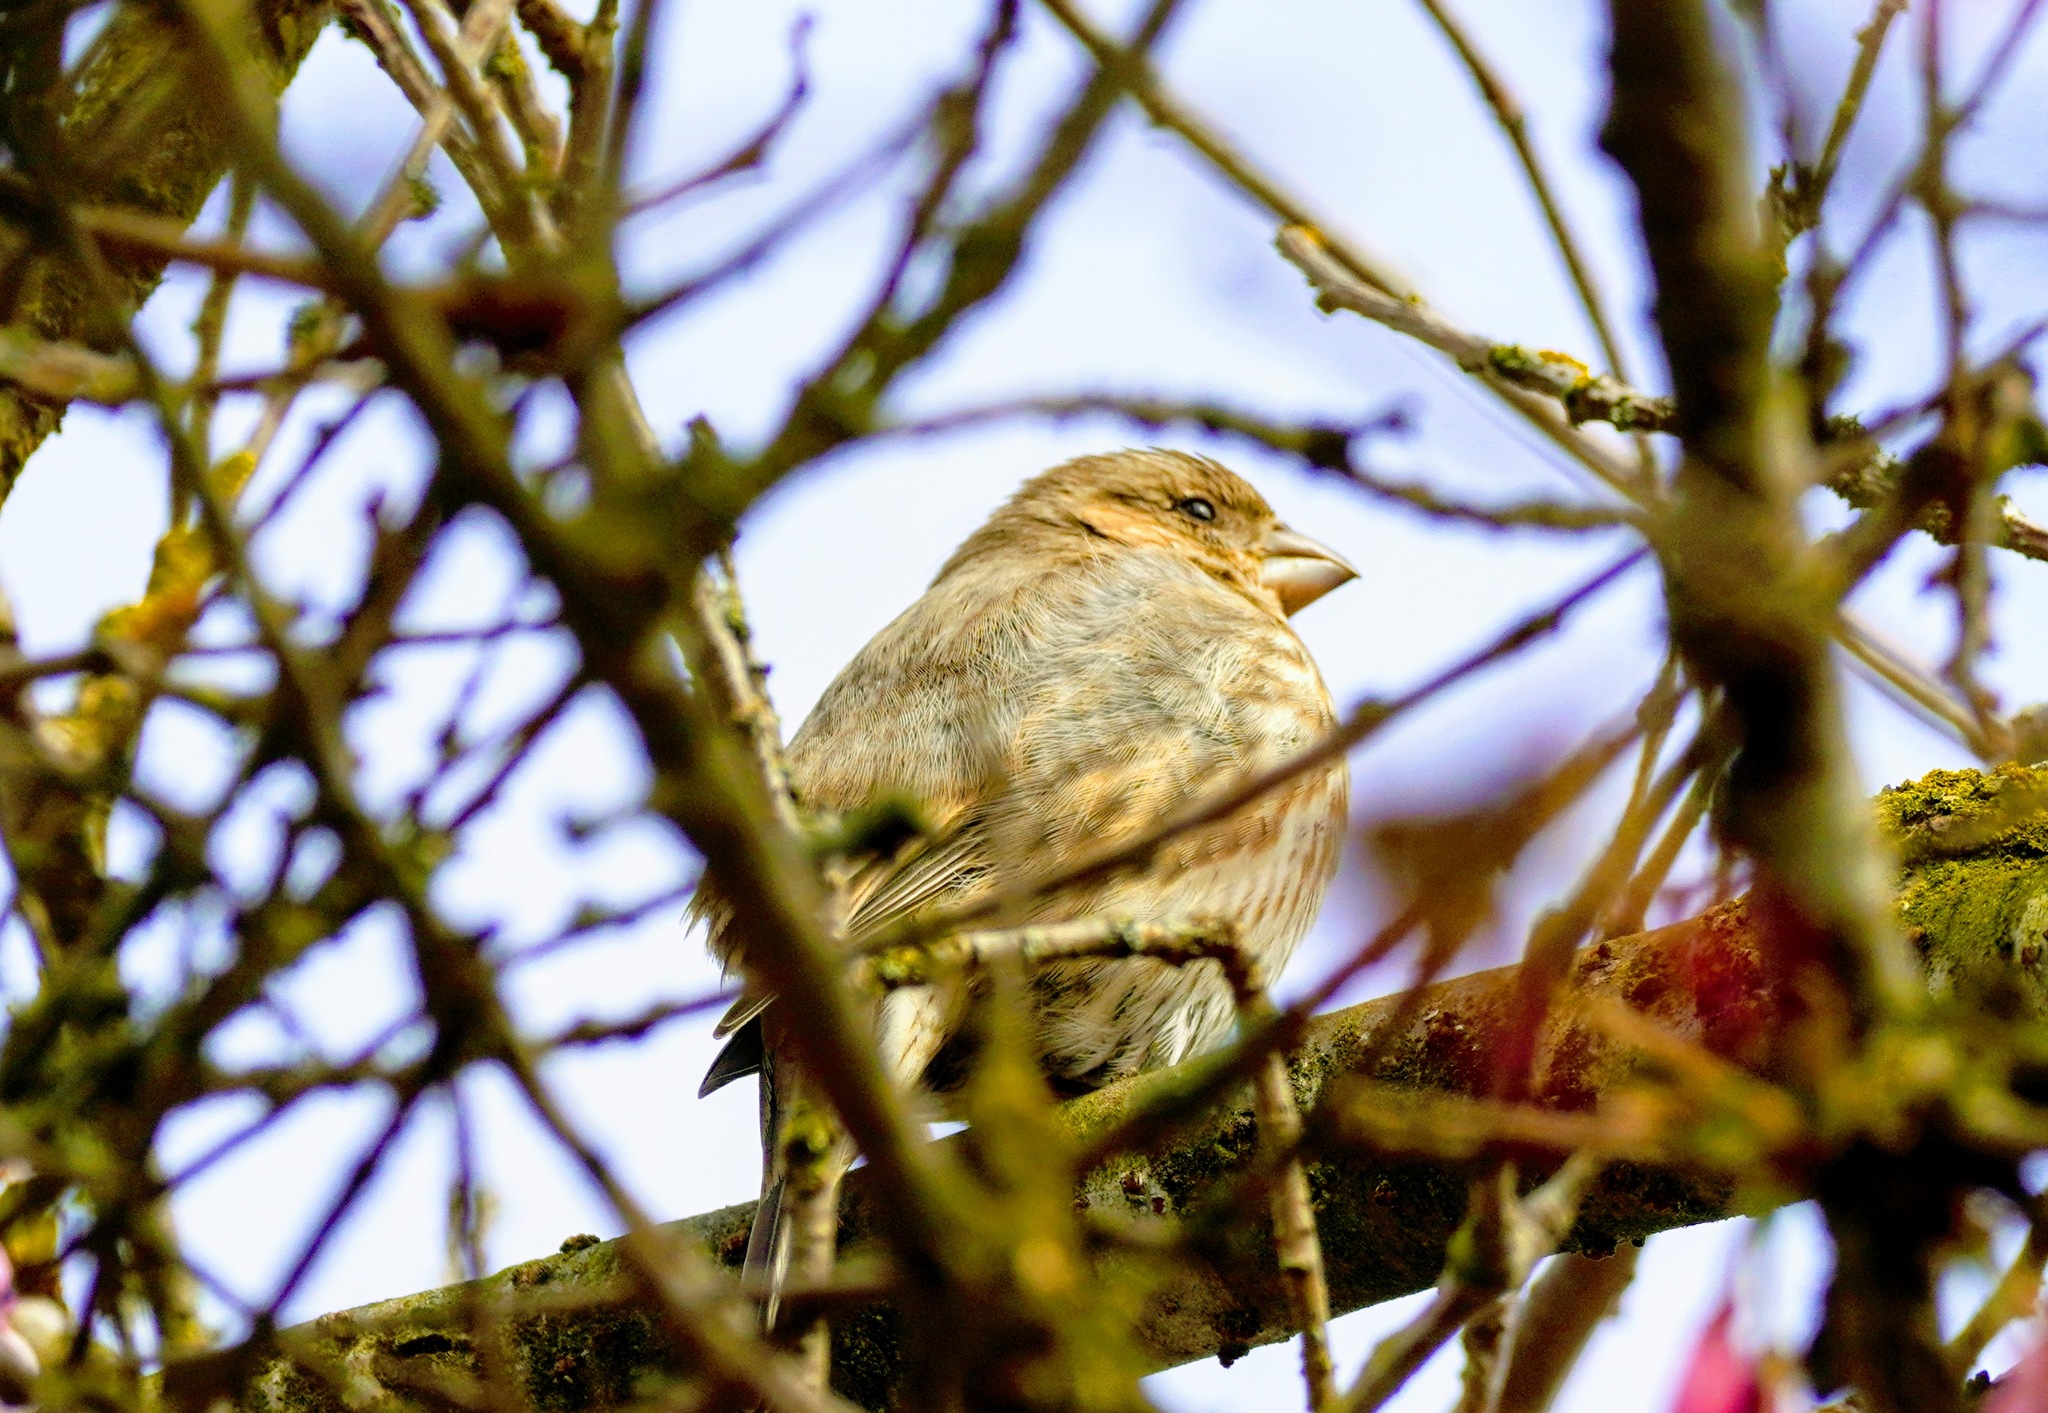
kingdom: Animalia
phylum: Chordata
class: Aves
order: Passeriformes
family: Fringillidae
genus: Haemorhous
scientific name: Haemorhous mexicanus
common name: House finch
